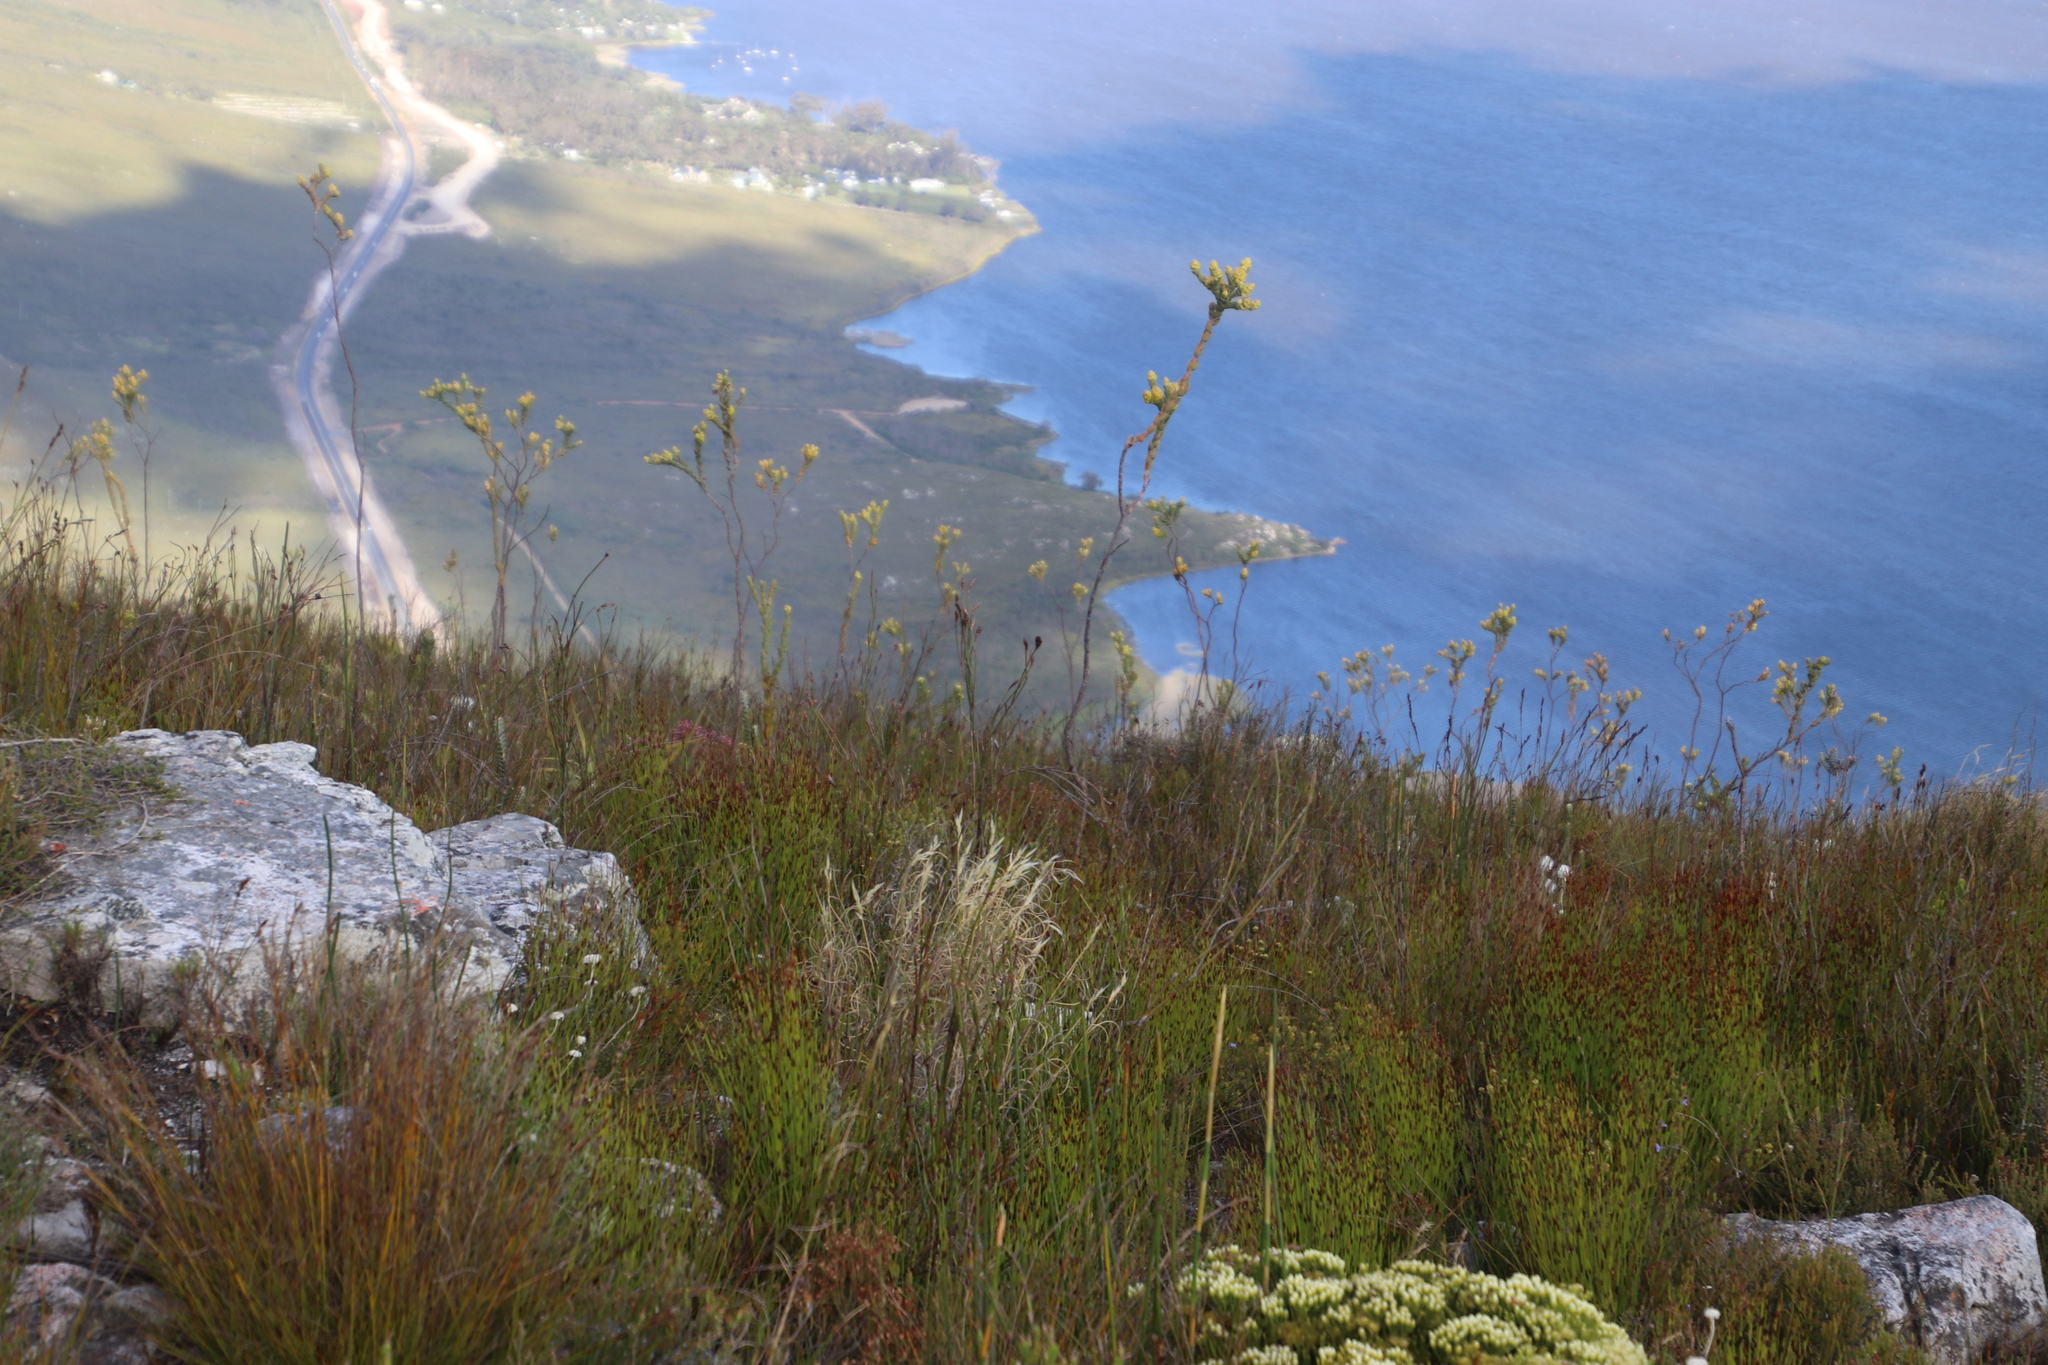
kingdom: Plantae
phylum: Tracheophyta
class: Magnoliopsida
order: Santalales
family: Thesiaceae
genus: Thesium
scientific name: Thesium euphorbioides
